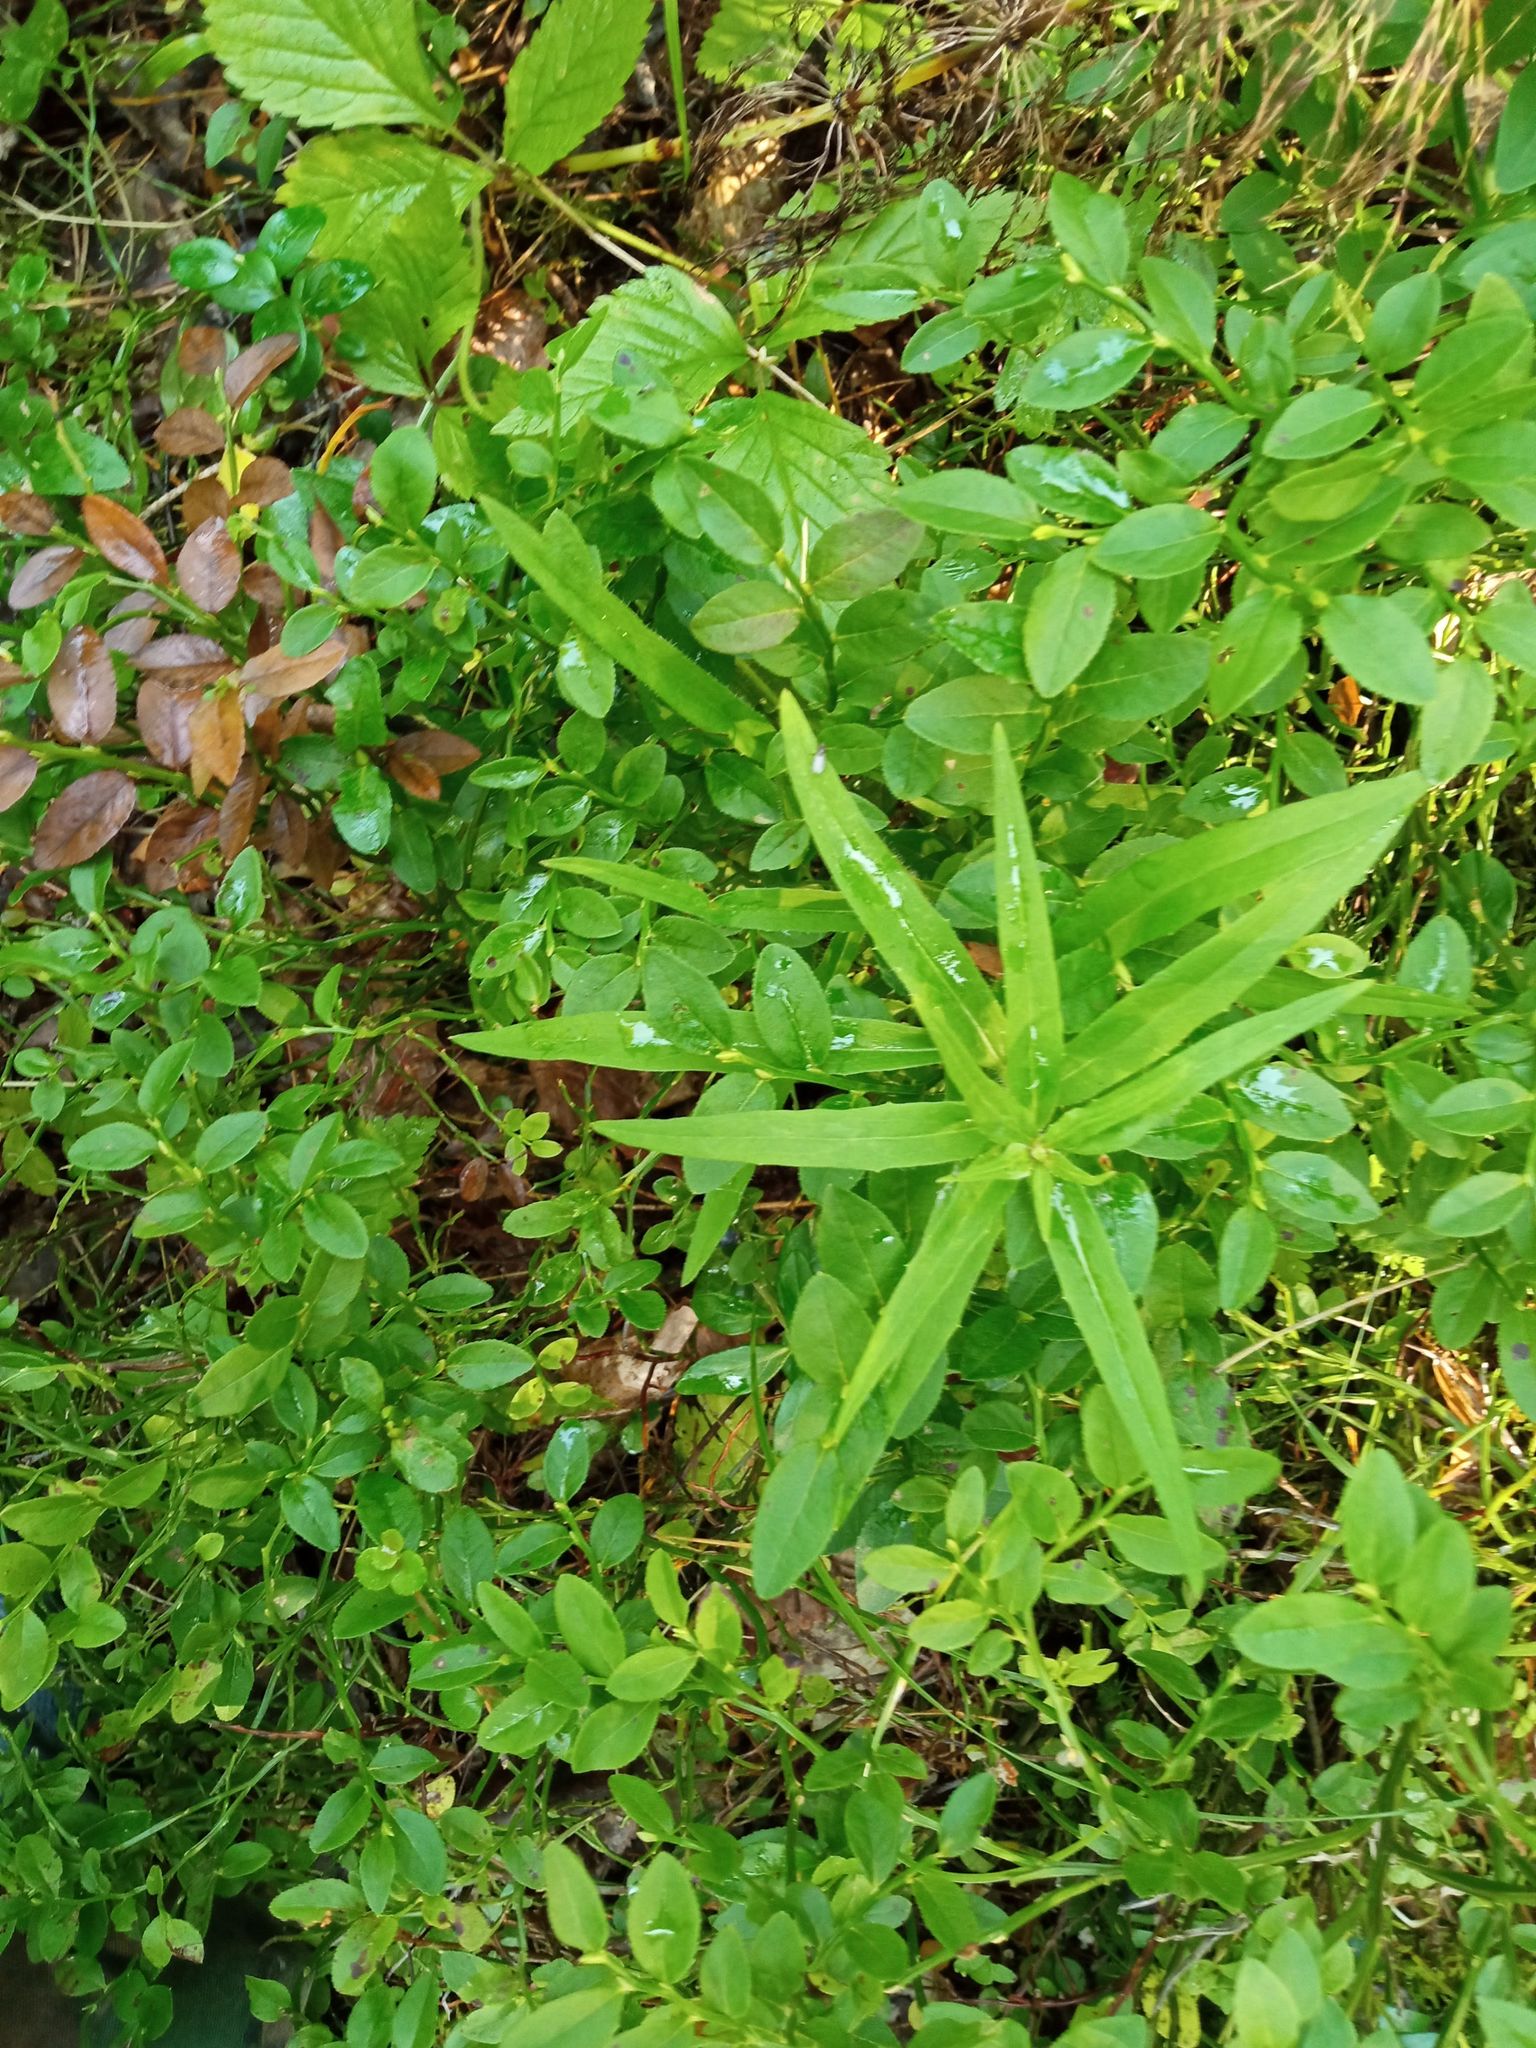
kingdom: Plantae
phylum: Tracheophyta
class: Magnoliopsida
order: Asterales
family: Asteraceae
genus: Hieracium
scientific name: Hieracium umbellatum
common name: Northern hawkweed
